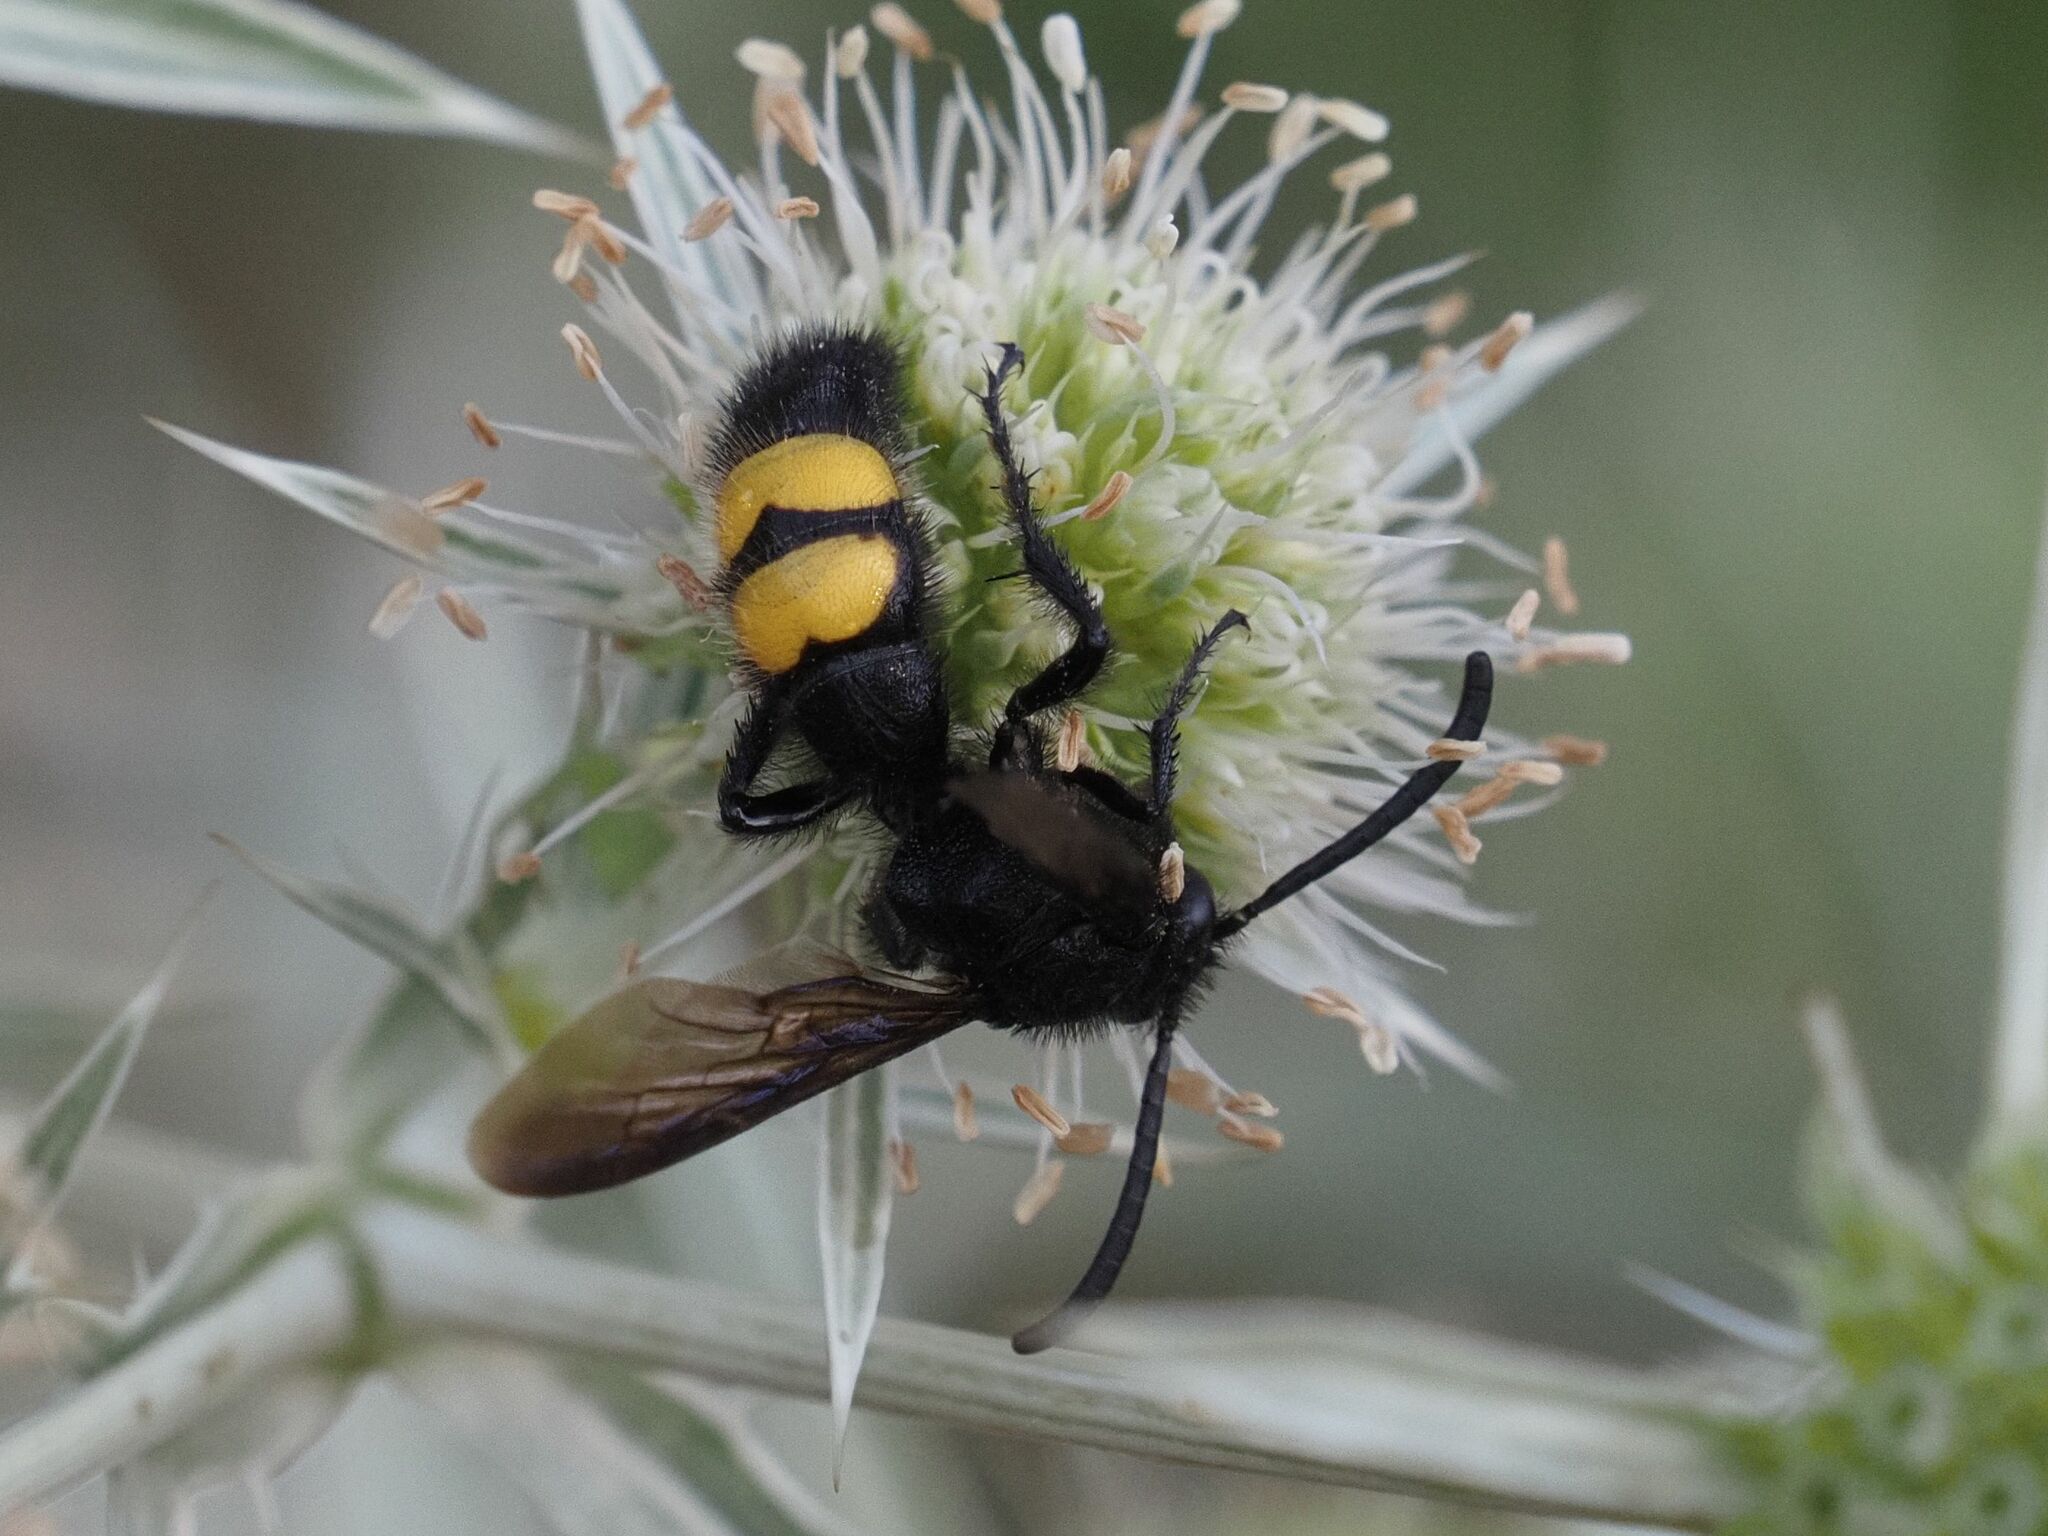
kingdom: Animalia
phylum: Arthropoda
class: Insecta
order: Hymenoptera
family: Scoliidae
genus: Scolia
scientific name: Scolia hirta
